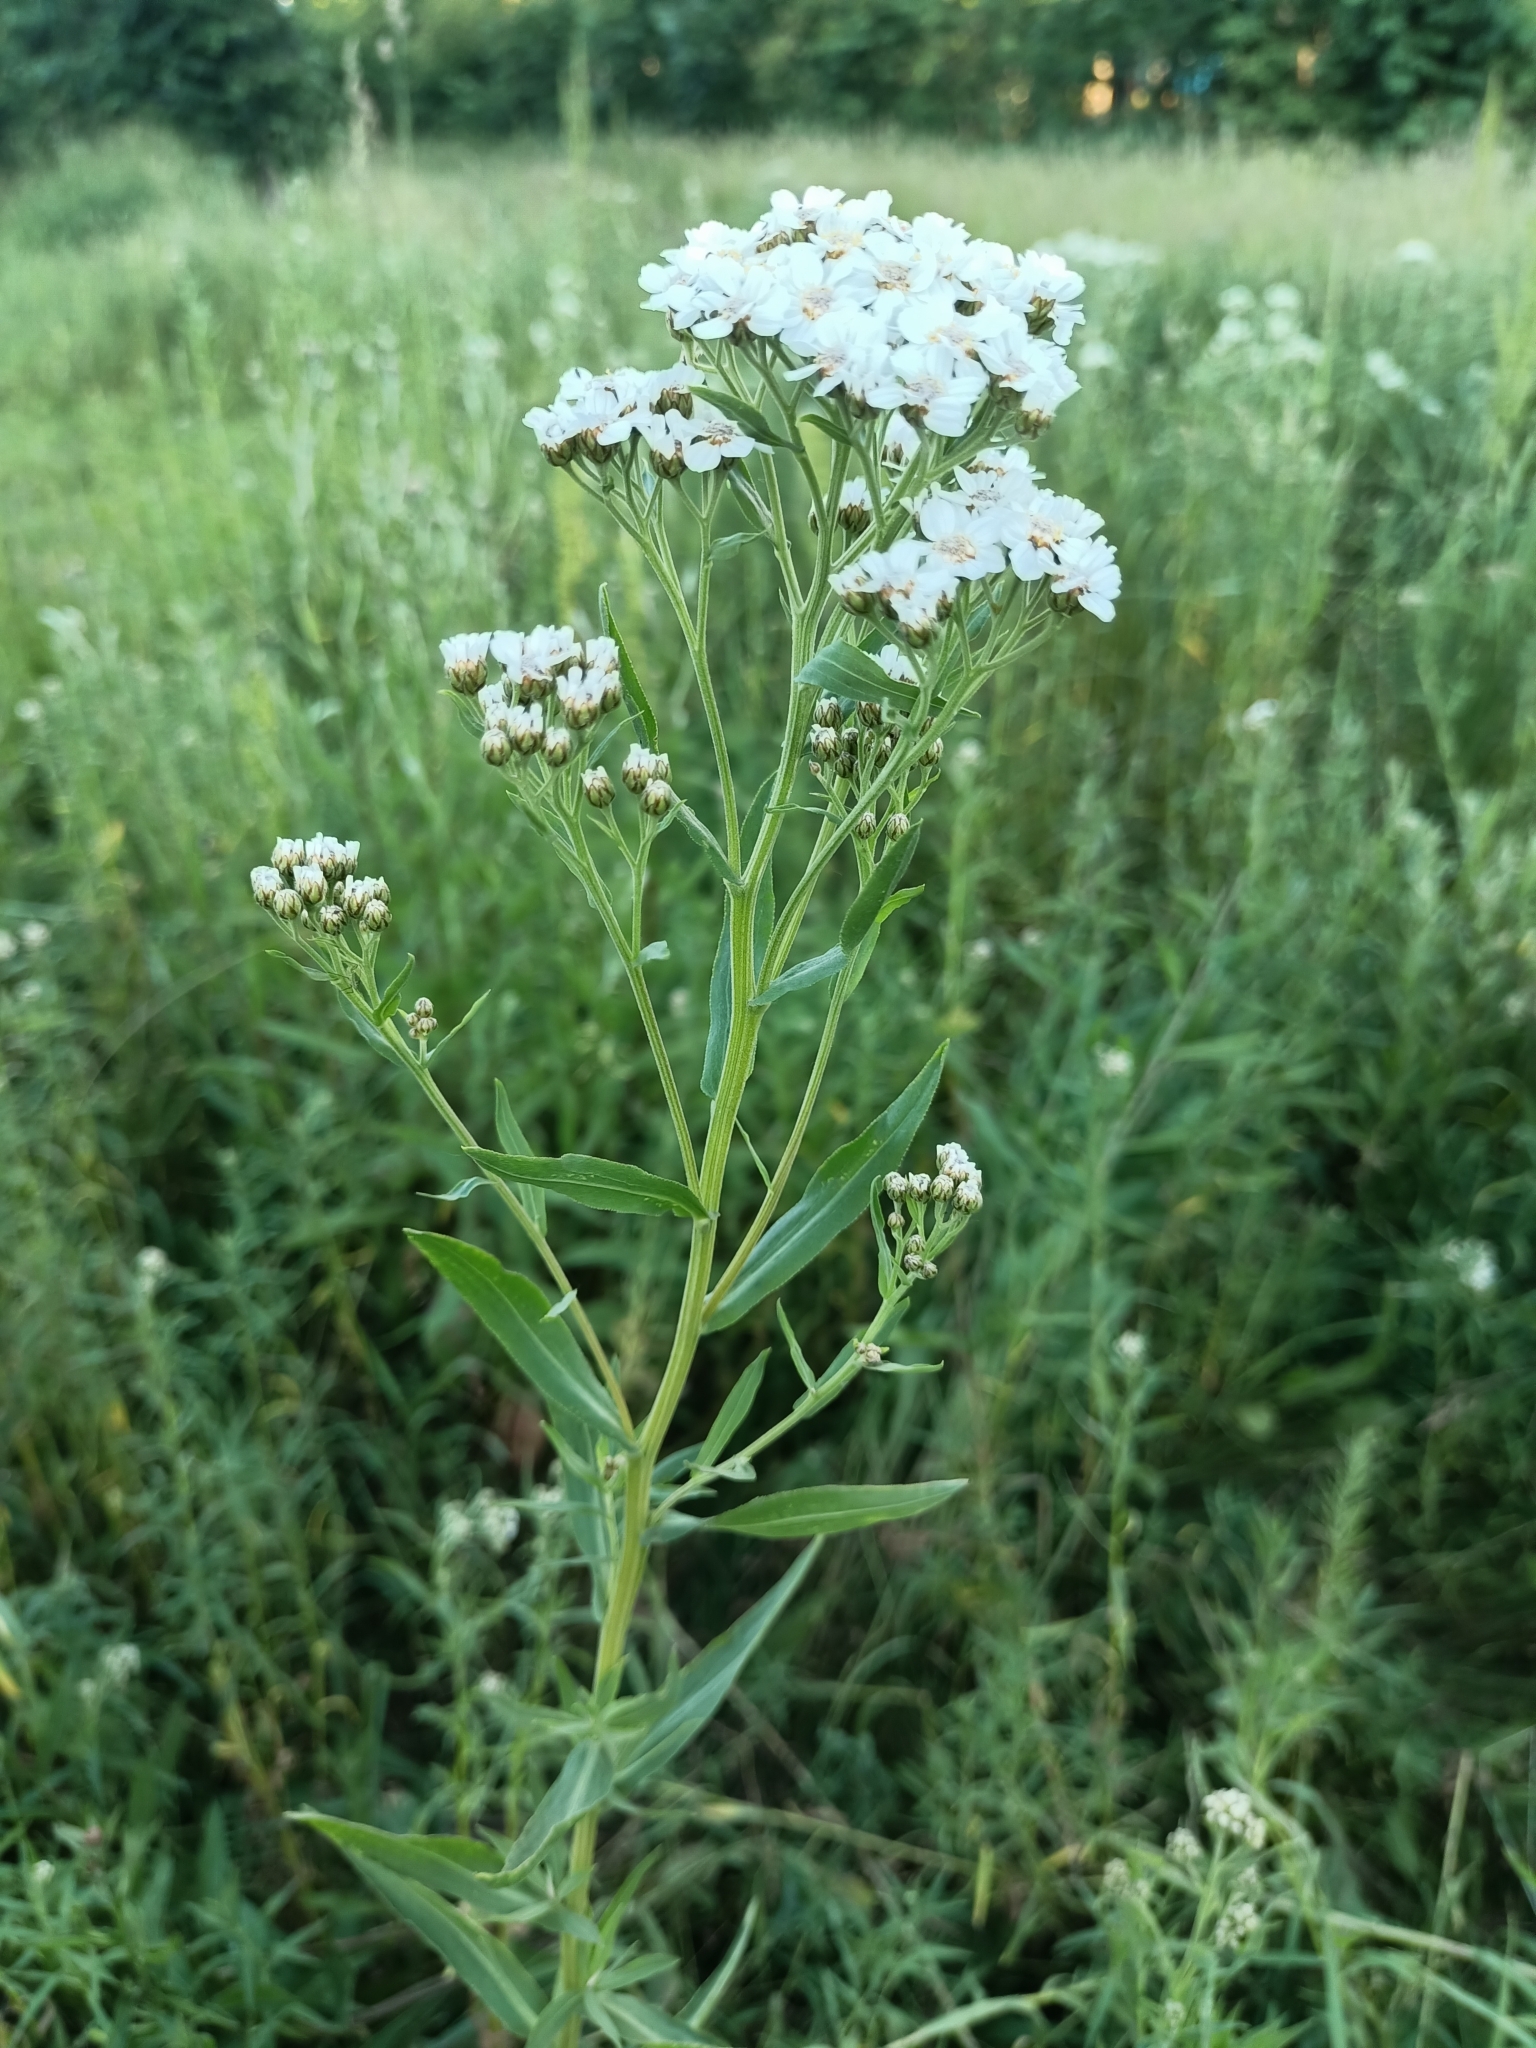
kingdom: Plantae
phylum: Tracheophyta
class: Magnoliopsida
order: Asterales
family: Asteraceae
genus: Achillea
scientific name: Achillea salicifolia
